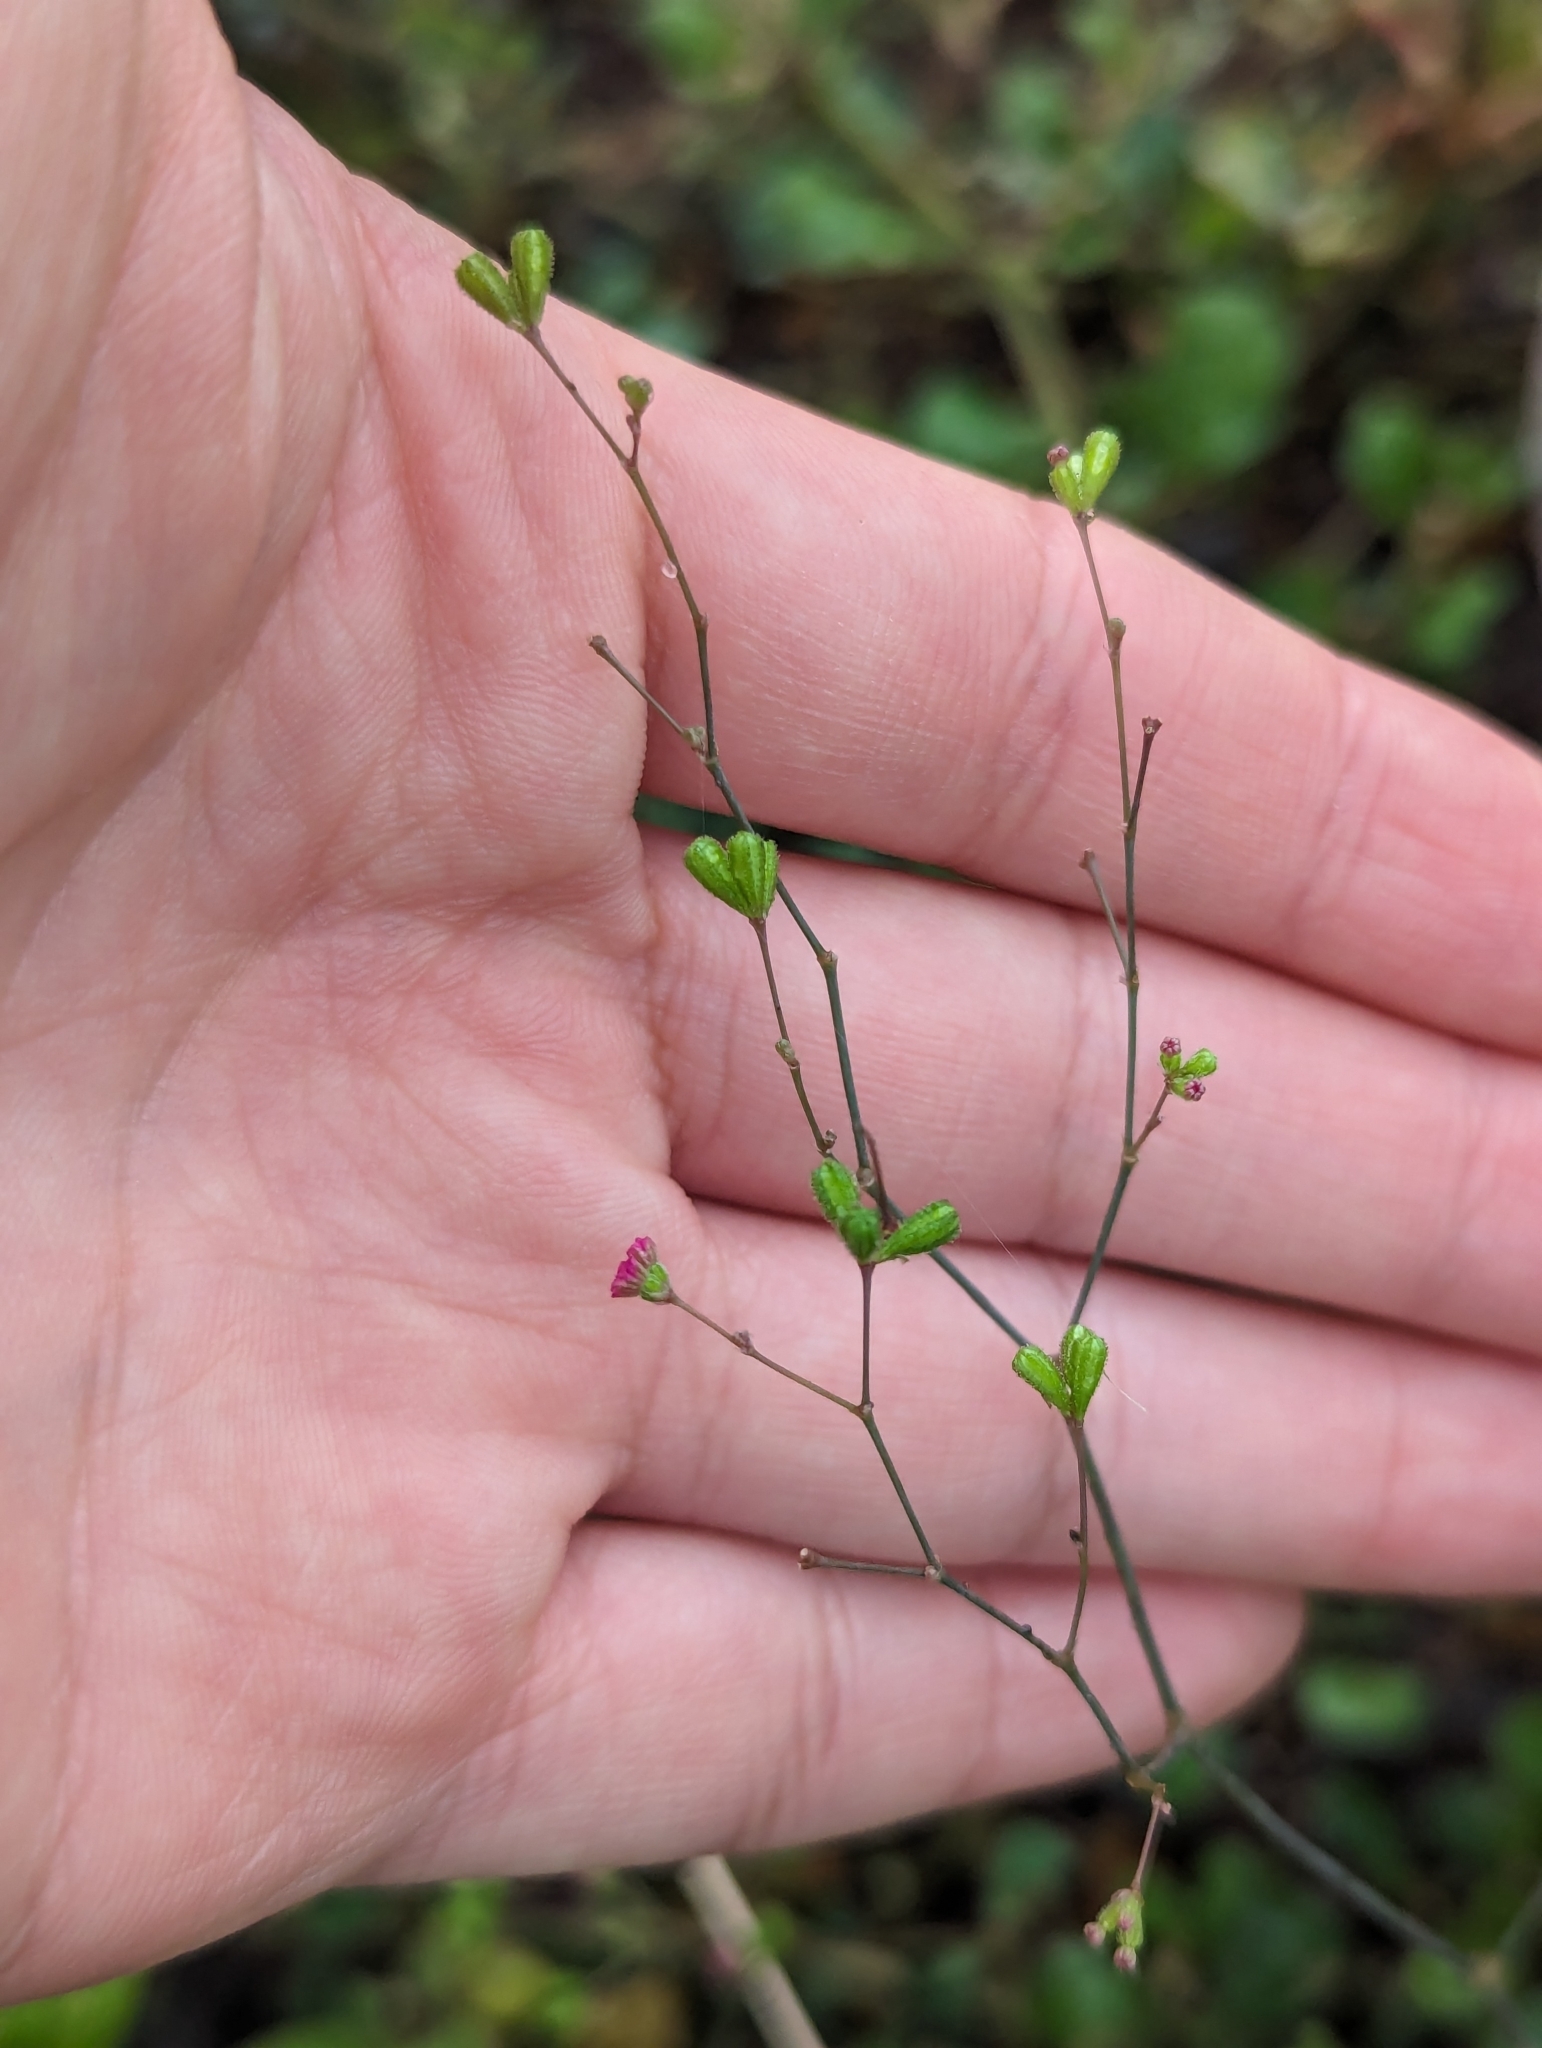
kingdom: Plantae
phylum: Tracheophyta
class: Magnoliopsida
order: Caryophyllales
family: Nyctaginaceae
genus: Boerhavia
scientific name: Boerhavia coccinea
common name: Scarlet spiderling
